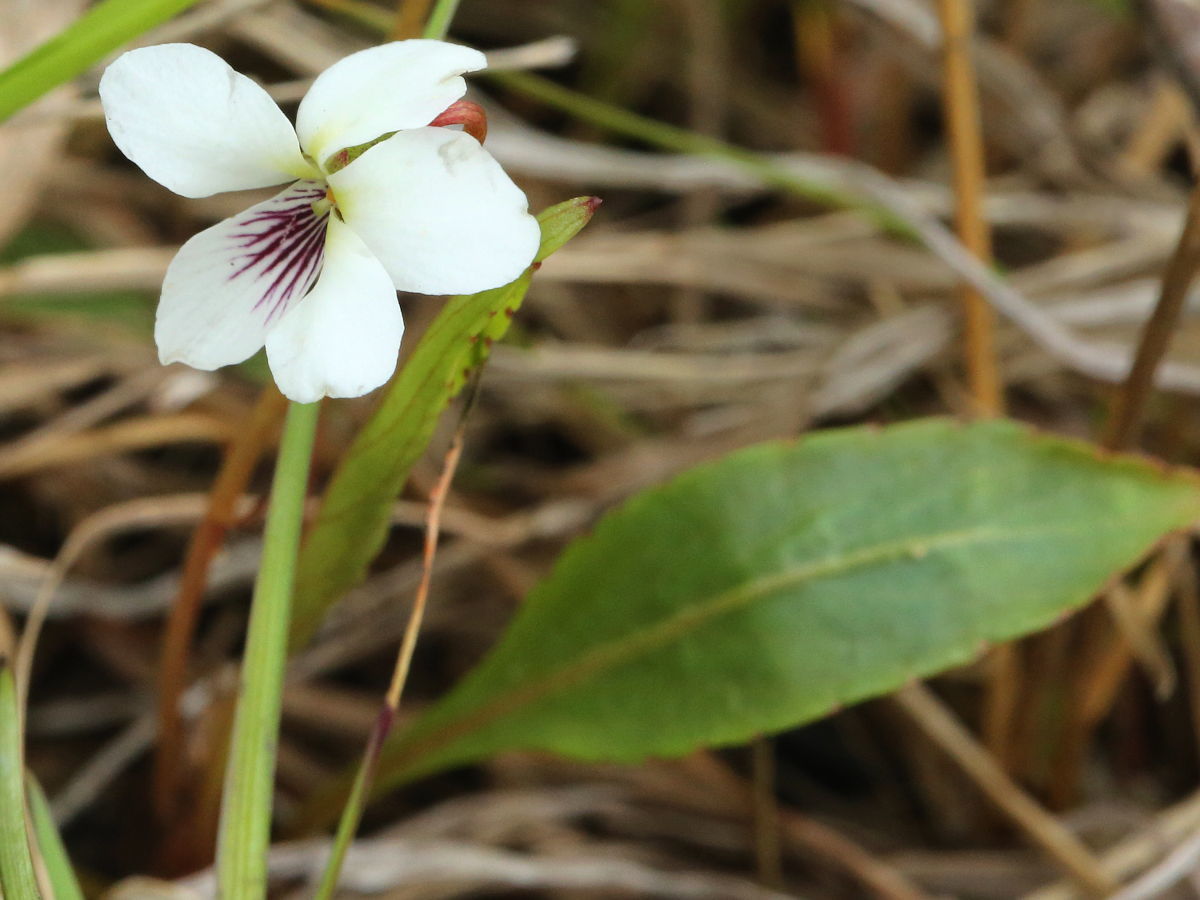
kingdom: Plantae
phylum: Tracheophyta
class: Magnoliopsida
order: Malpighiales
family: Violaceae
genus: Viola
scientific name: Viola lanceolata
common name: Bog white violet
